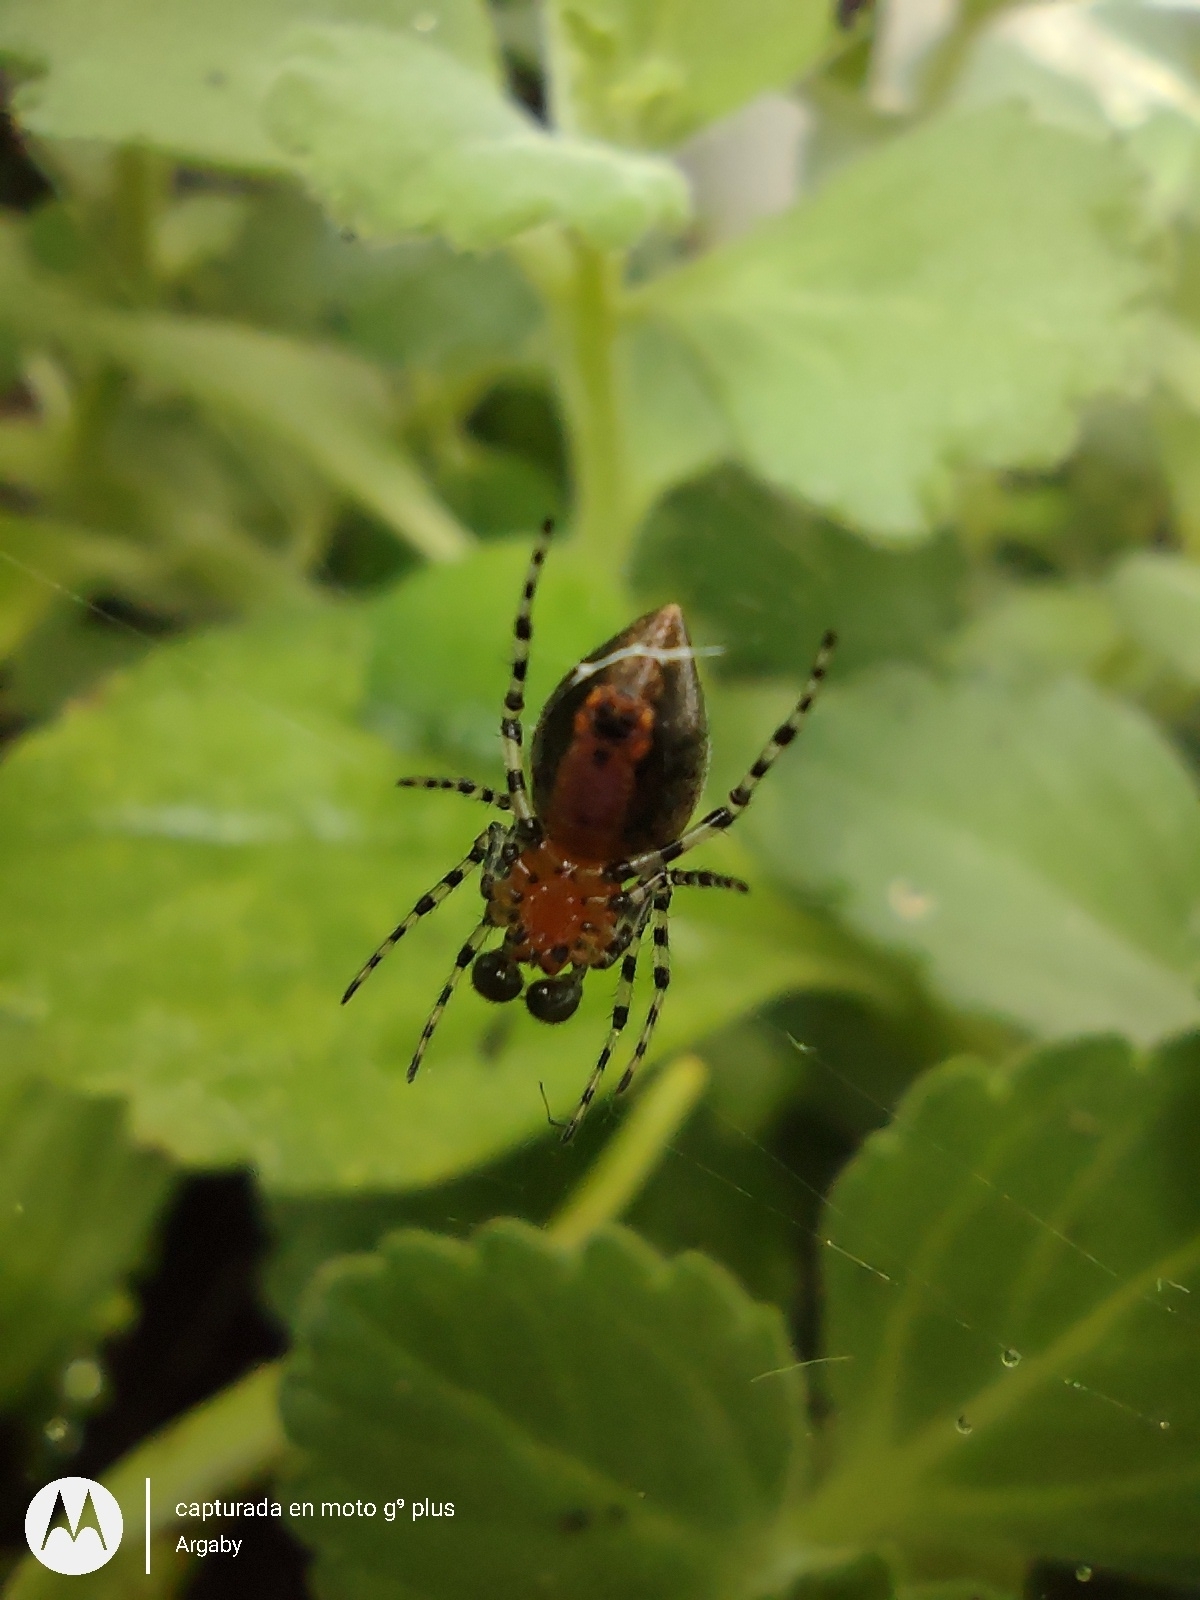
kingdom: Animalia
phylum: Arthropoda
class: Arachnida
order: Araneae
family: Araneidae
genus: Alpaida
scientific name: Alpaida gallardoi
